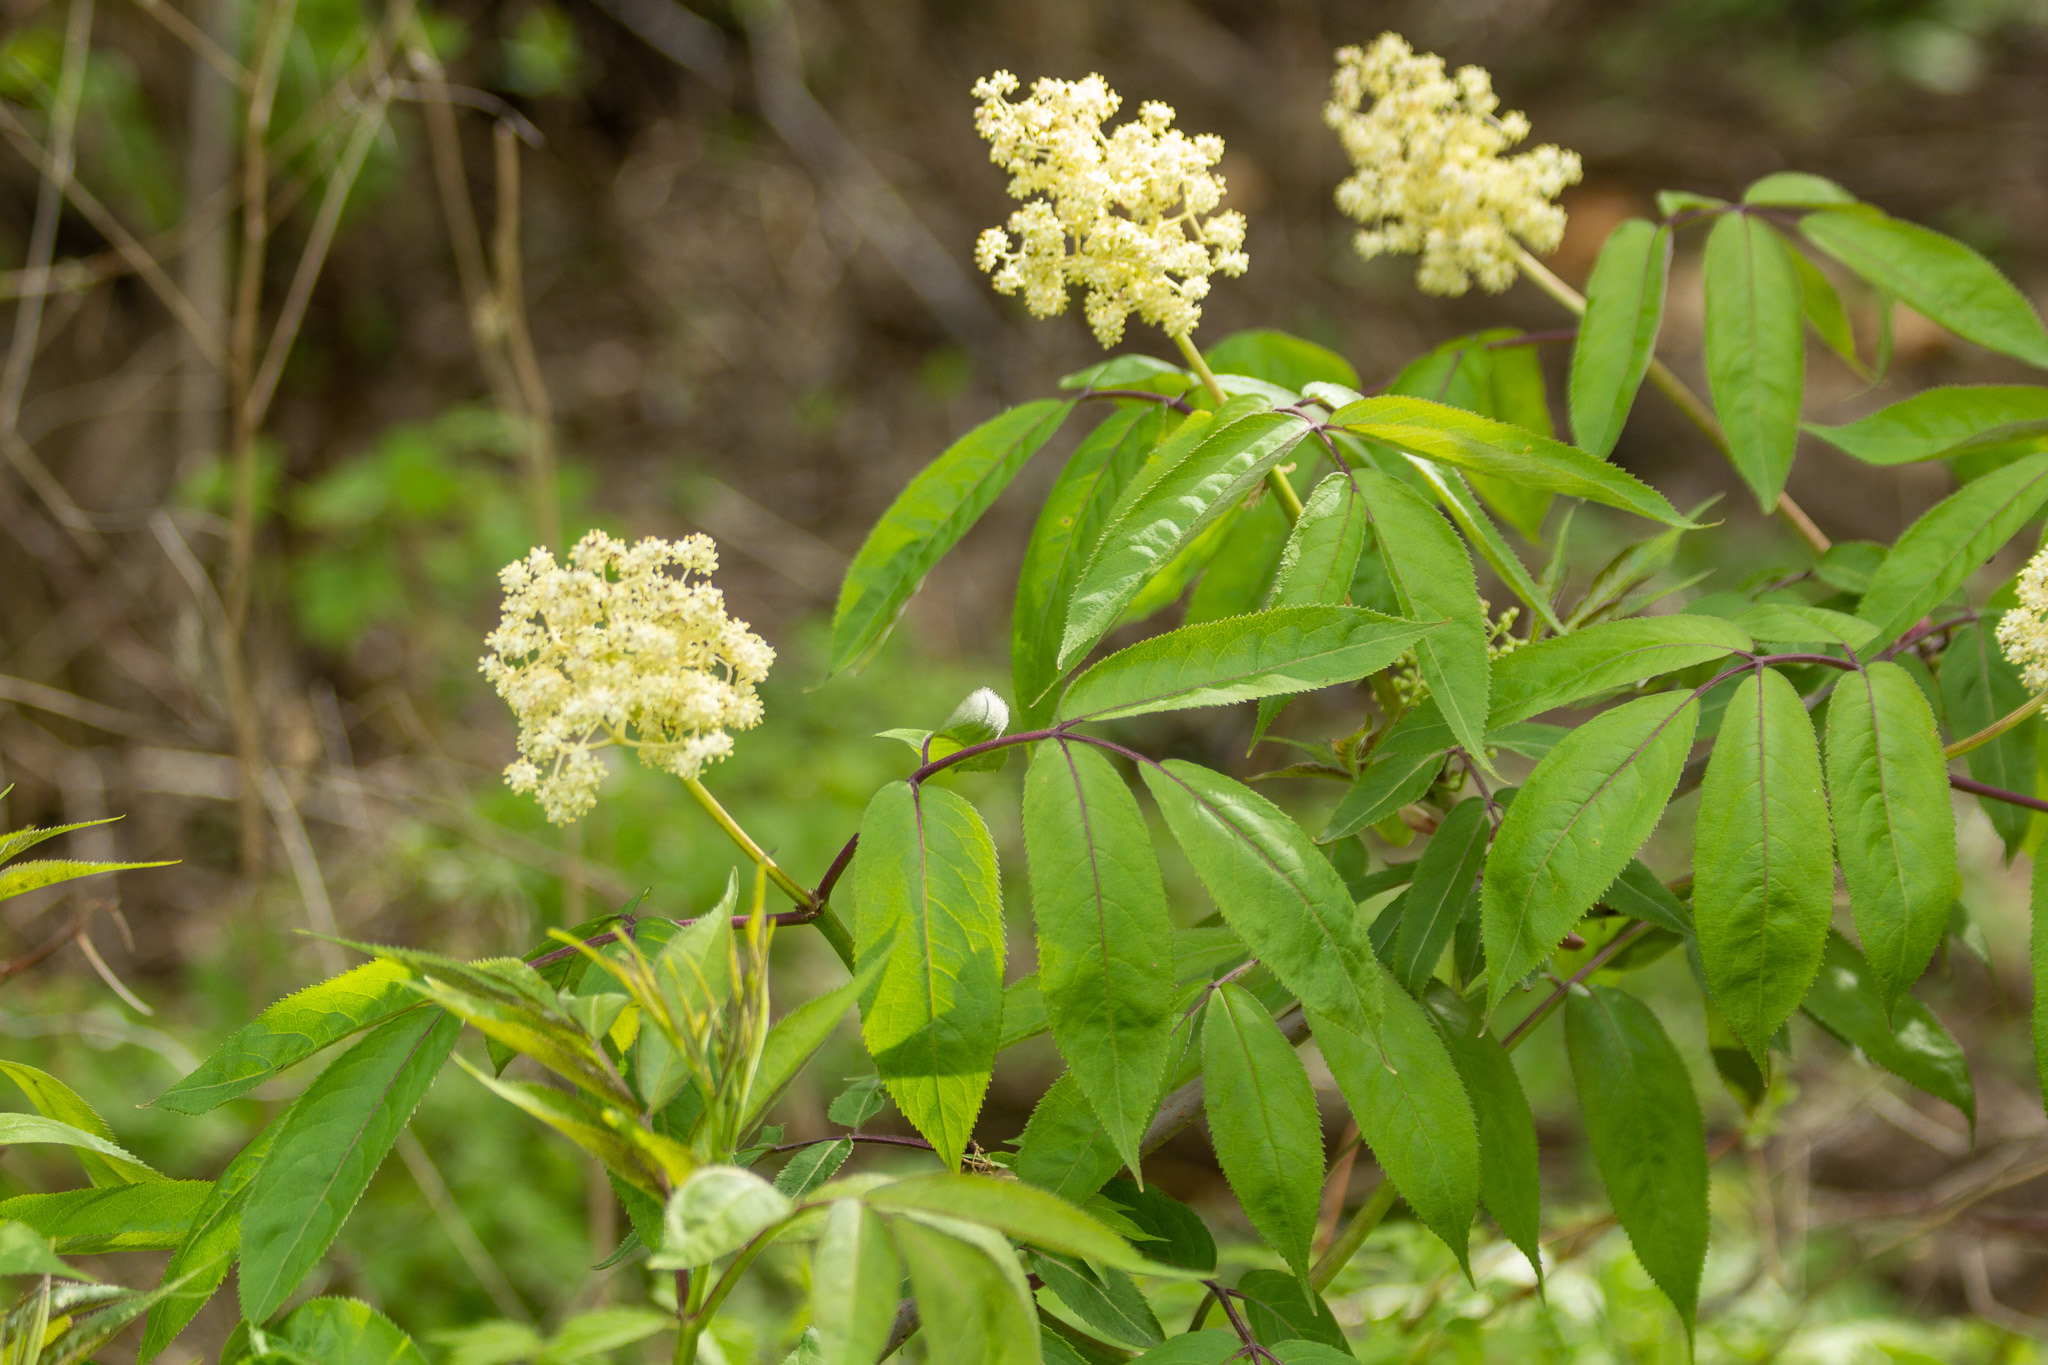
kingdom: Plantae
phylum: Tracheophyta
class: Magnoliopsida
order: Dipsacales
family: Viburnaceae
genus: Sambucus
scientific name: Sambucus racemosa
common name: Red-berried elder
